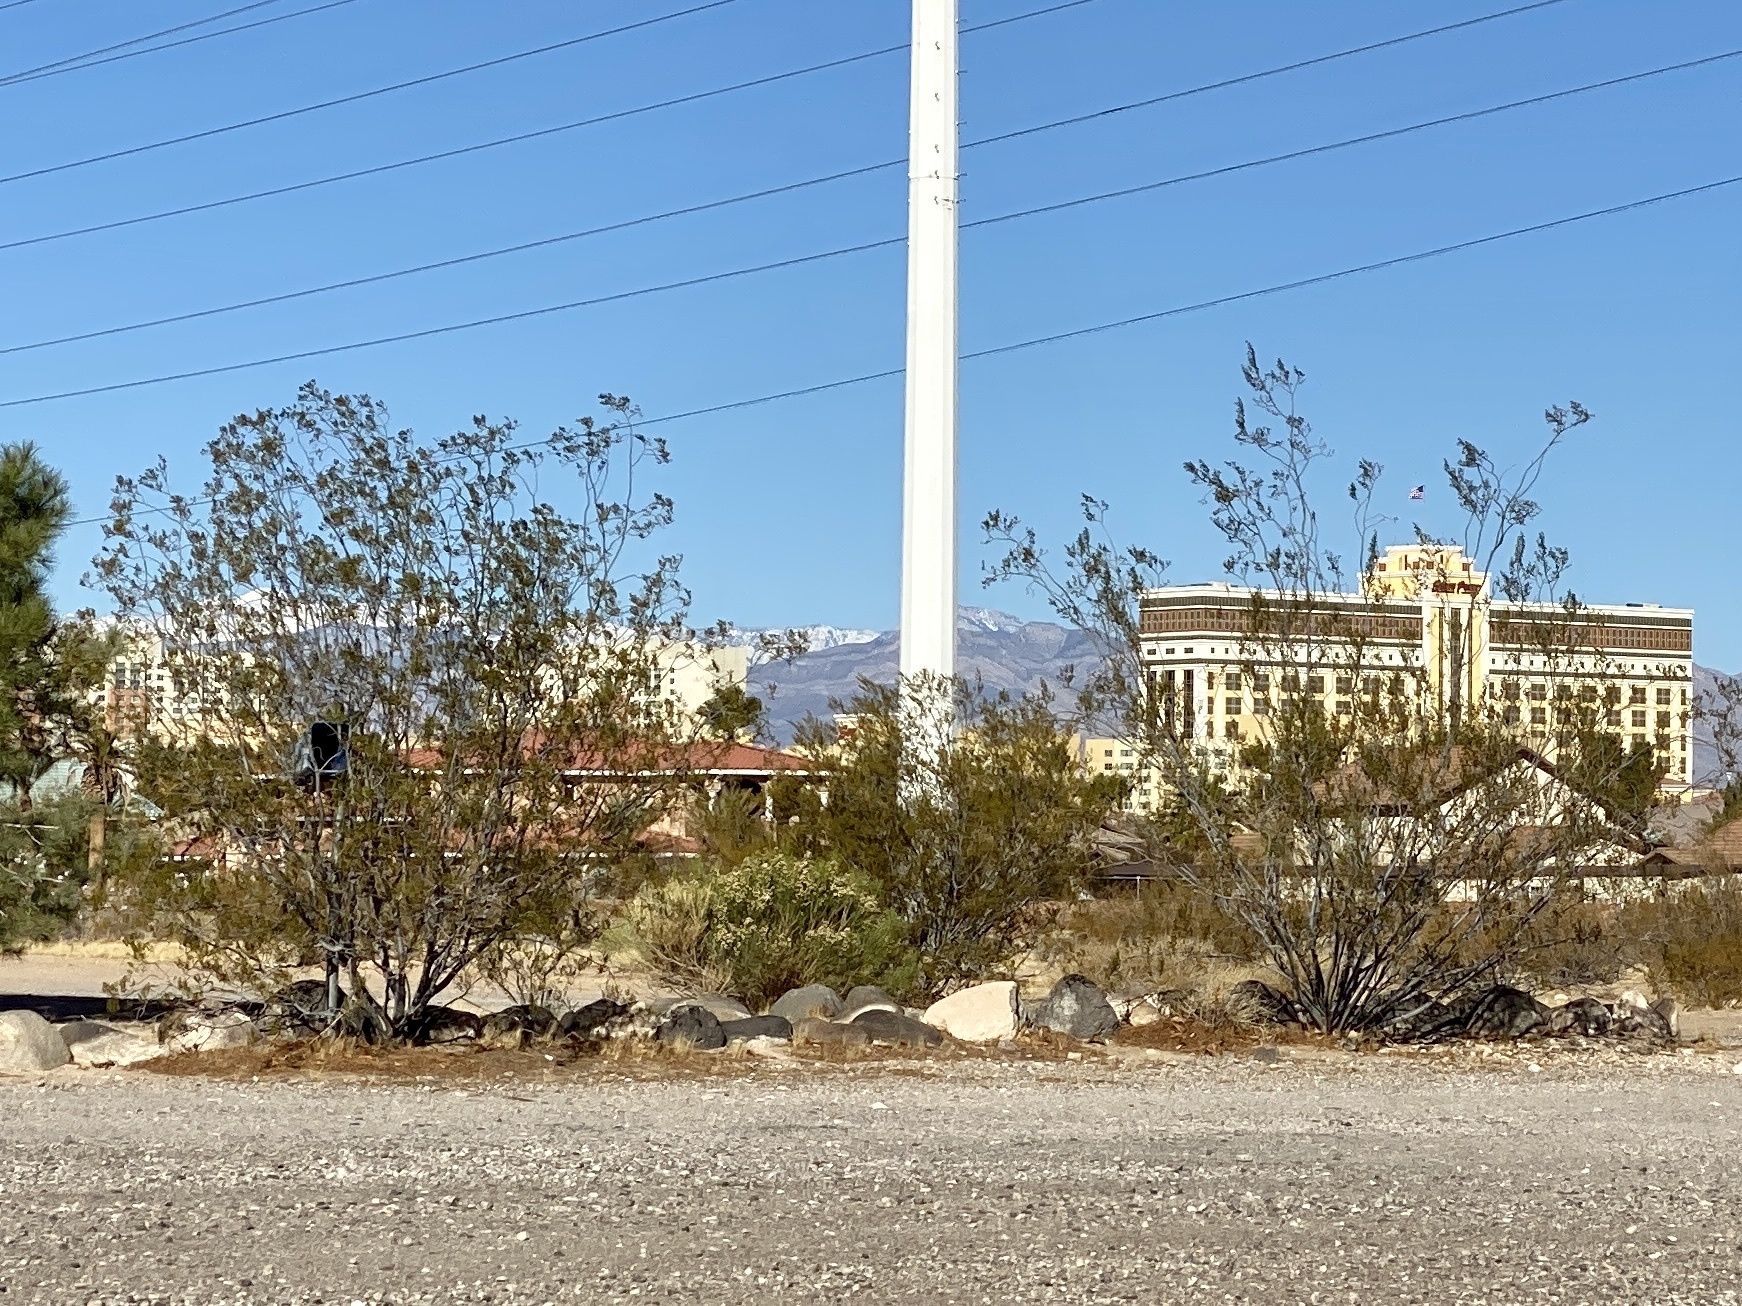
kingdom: Plantae
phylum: Tracheophyta
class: Magnoliopsida
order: Zygophyllales
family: Zygophyllaceae
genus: Larrea
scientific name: Larrea tridentata
